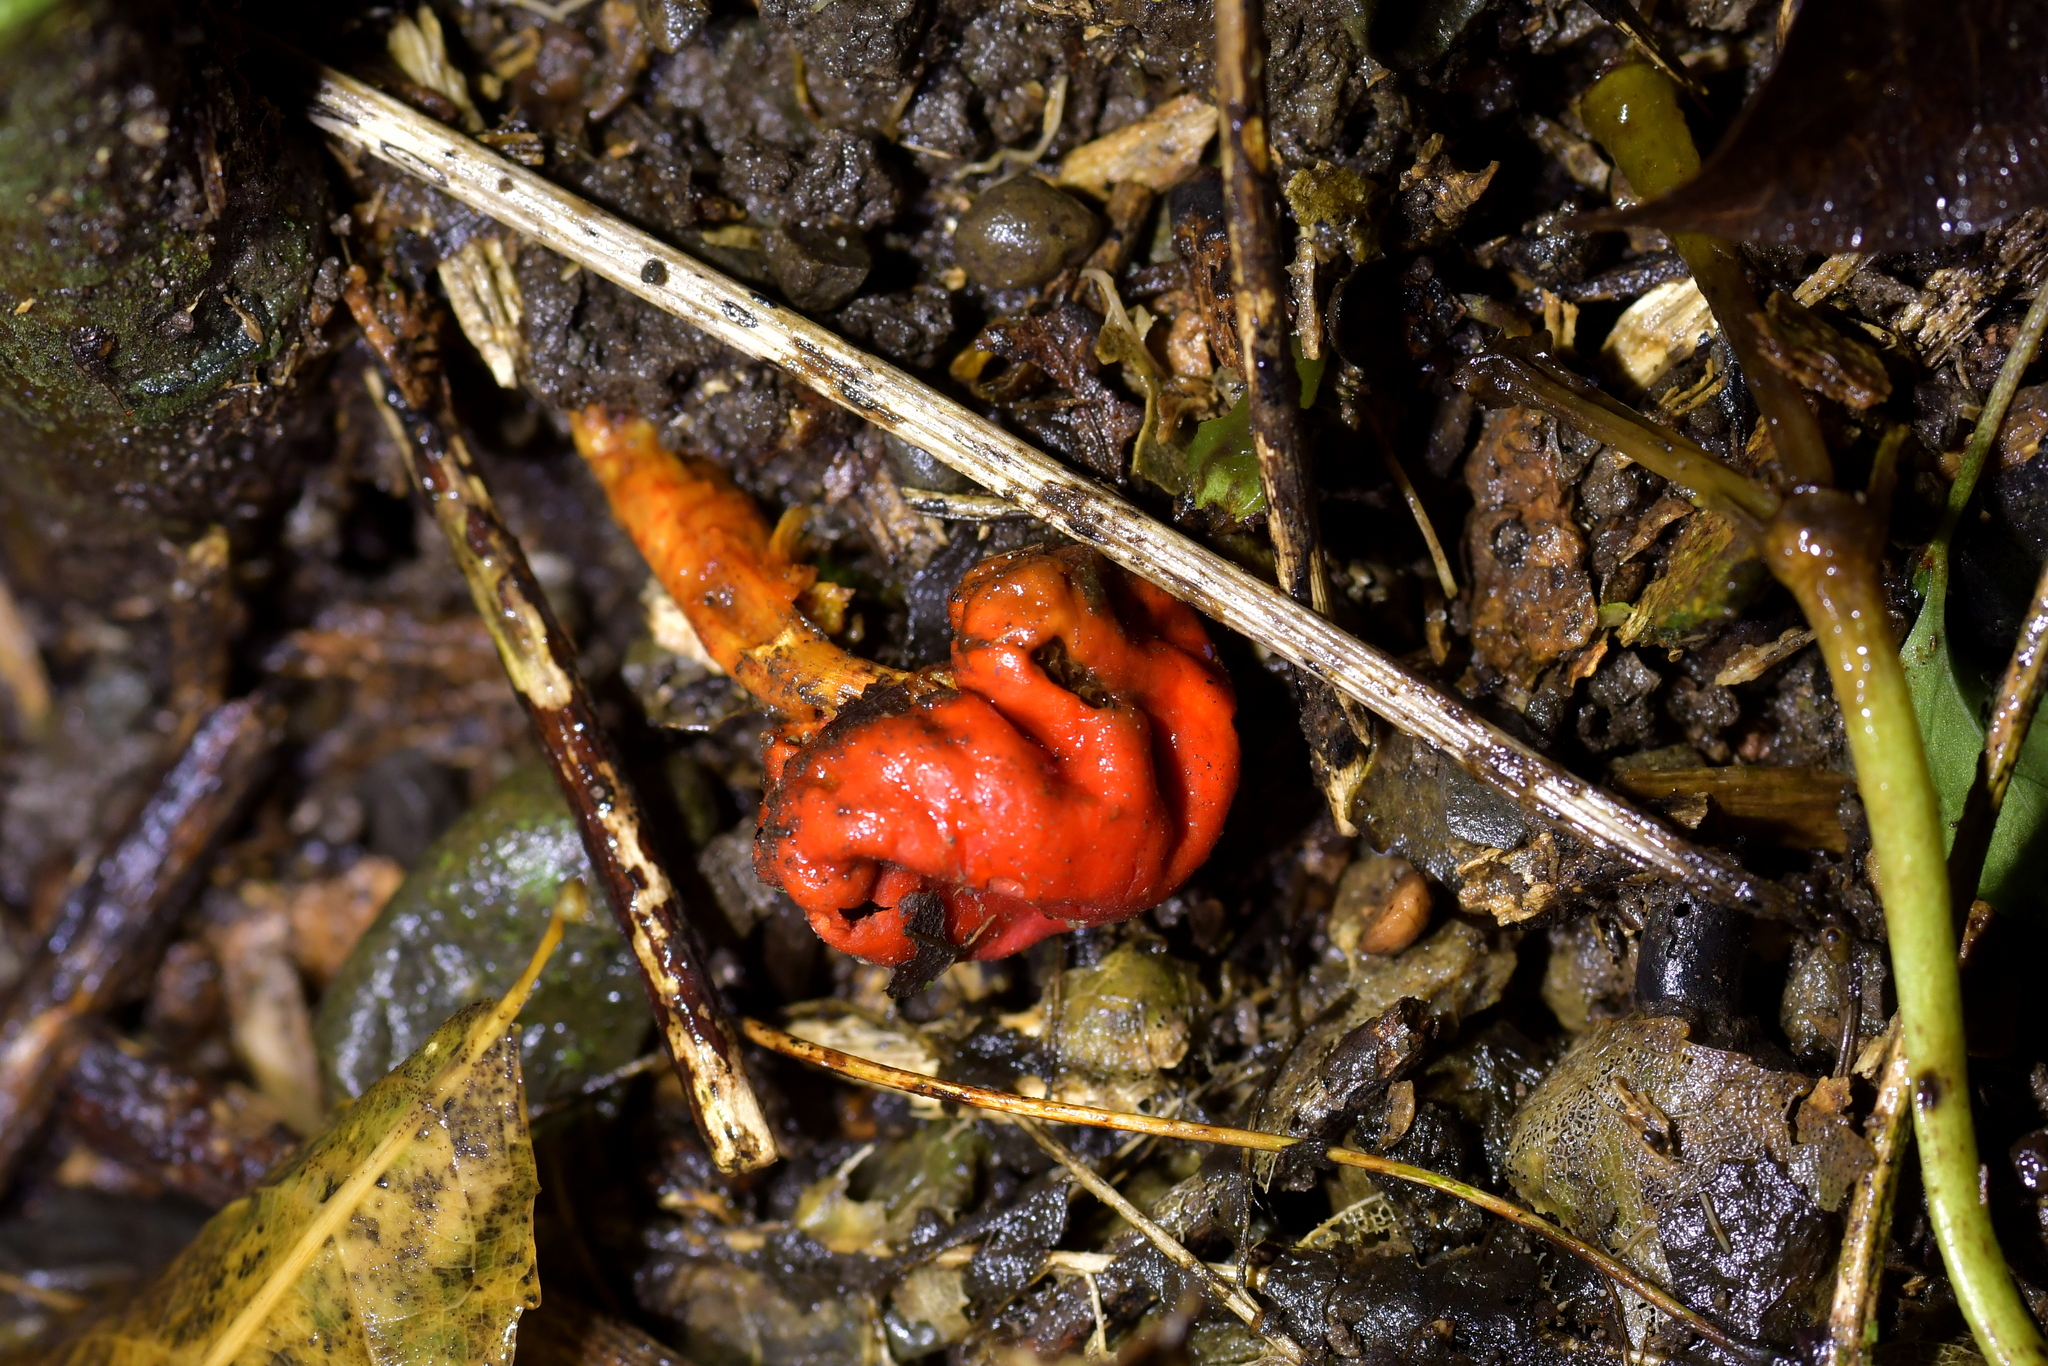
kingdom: Fungi
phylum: Basidiomycota
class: Agaricomycetes
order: Agaricales
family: Strophariaceae
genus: Leratiomyces
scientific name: Leratiomyces erythrocephalus
